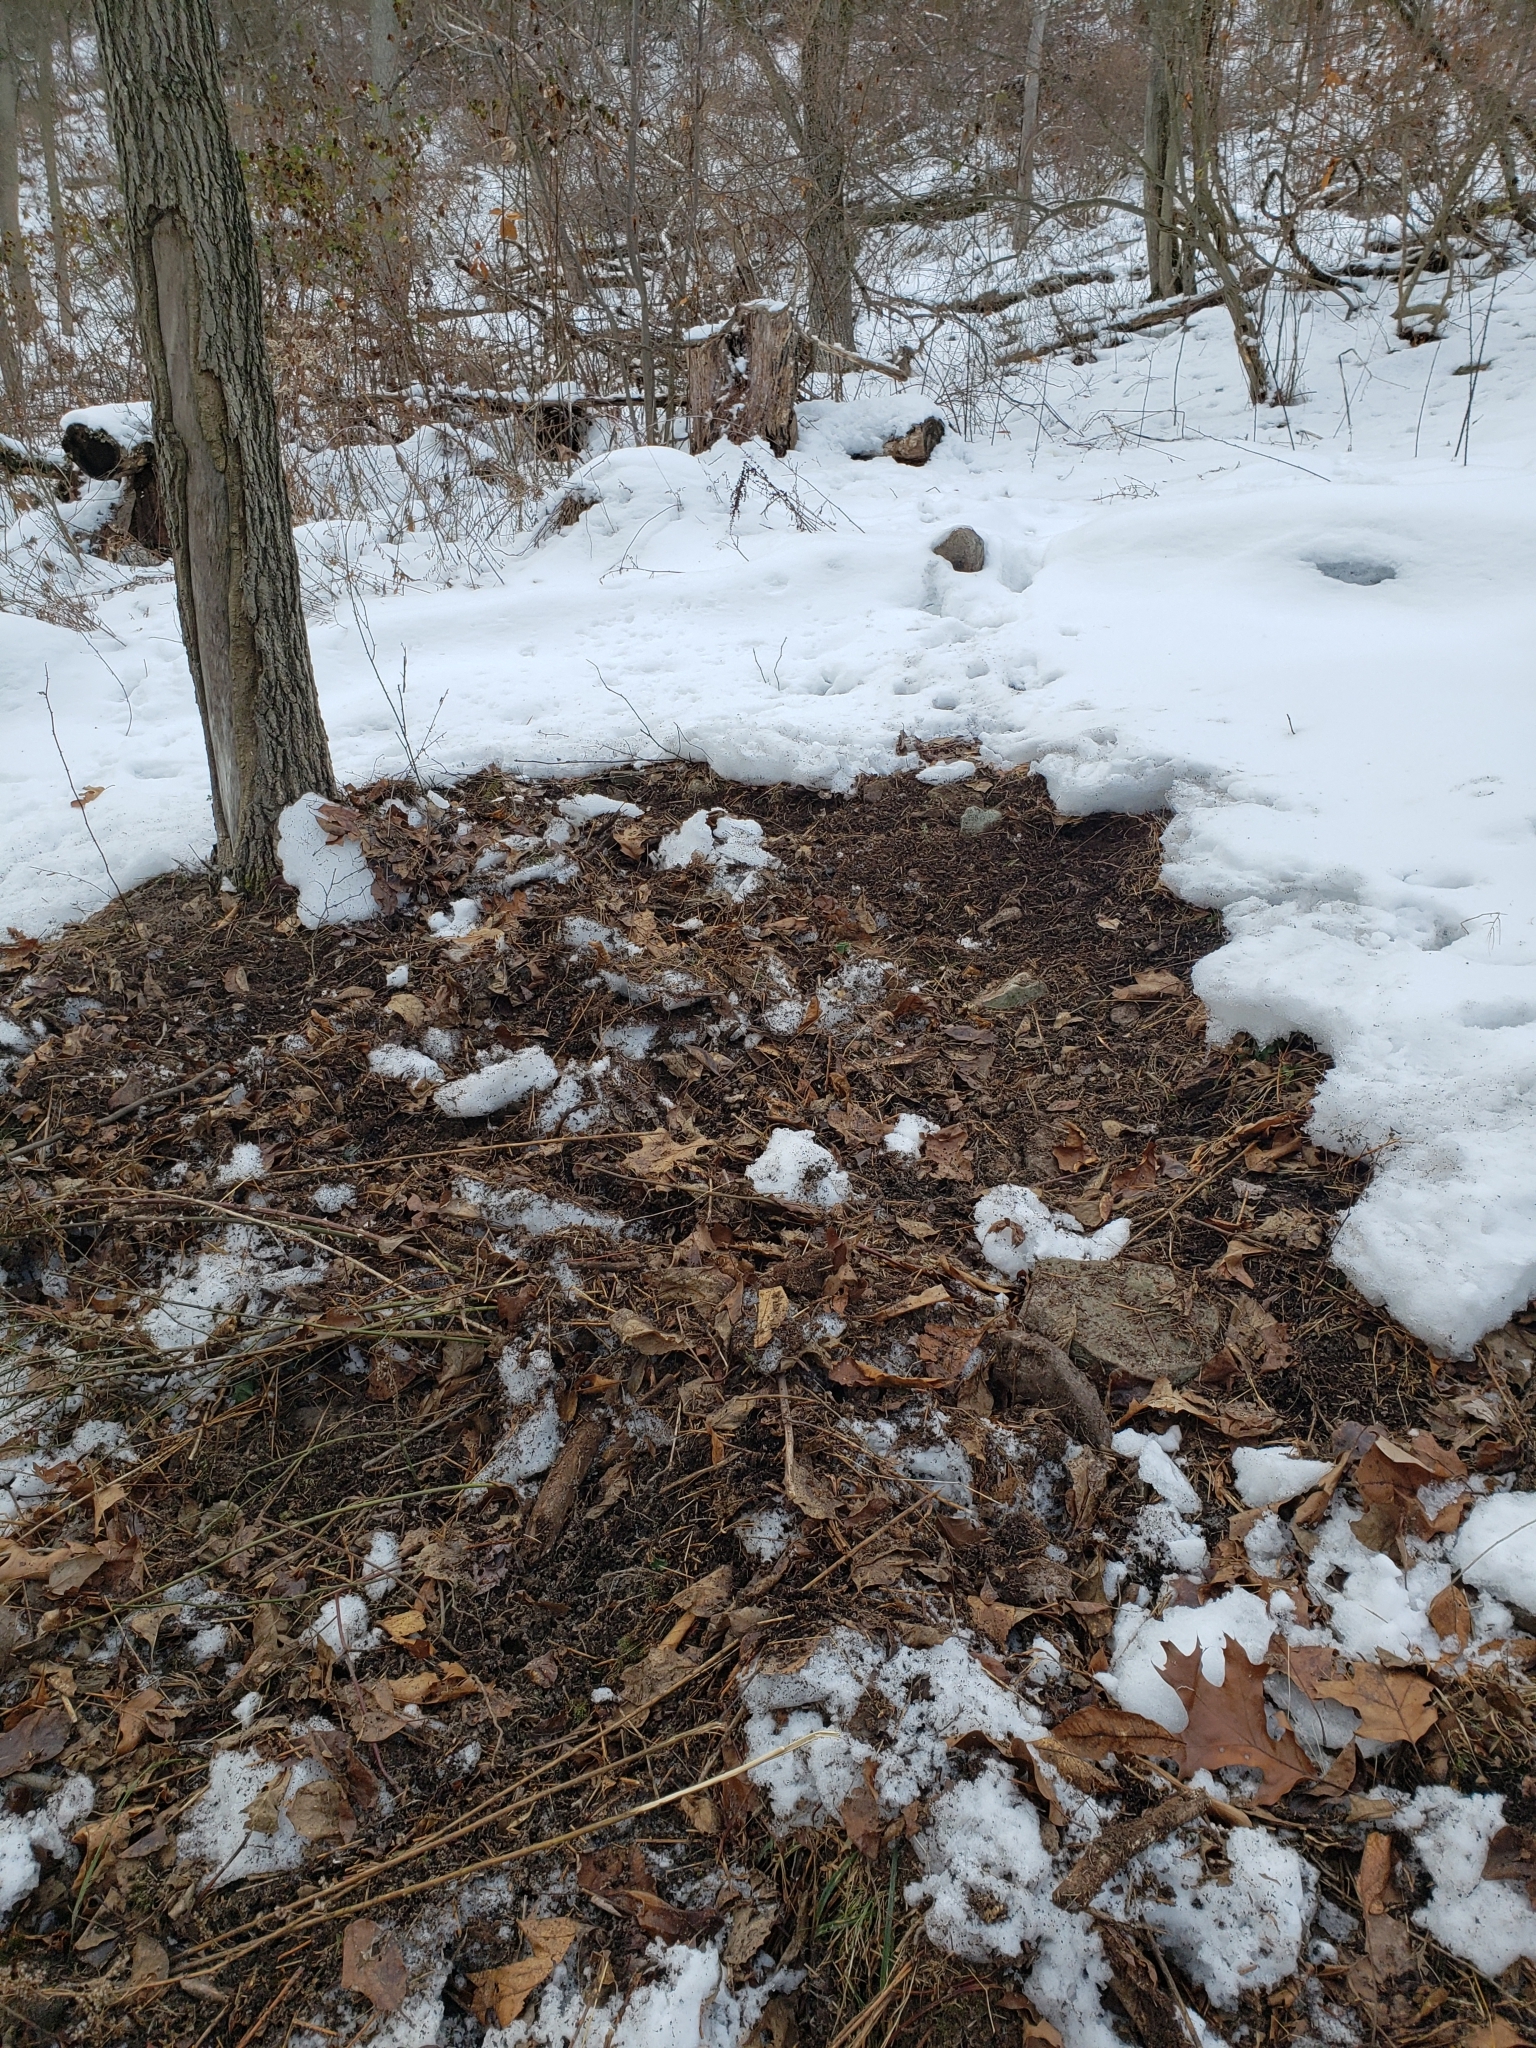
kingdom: Animalia
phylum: Chordata
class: Mammalia
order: Artiodactyla
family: Cervidae
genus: Odocoileus
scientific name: Odocoileus virginianus
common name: White-tailed deer
